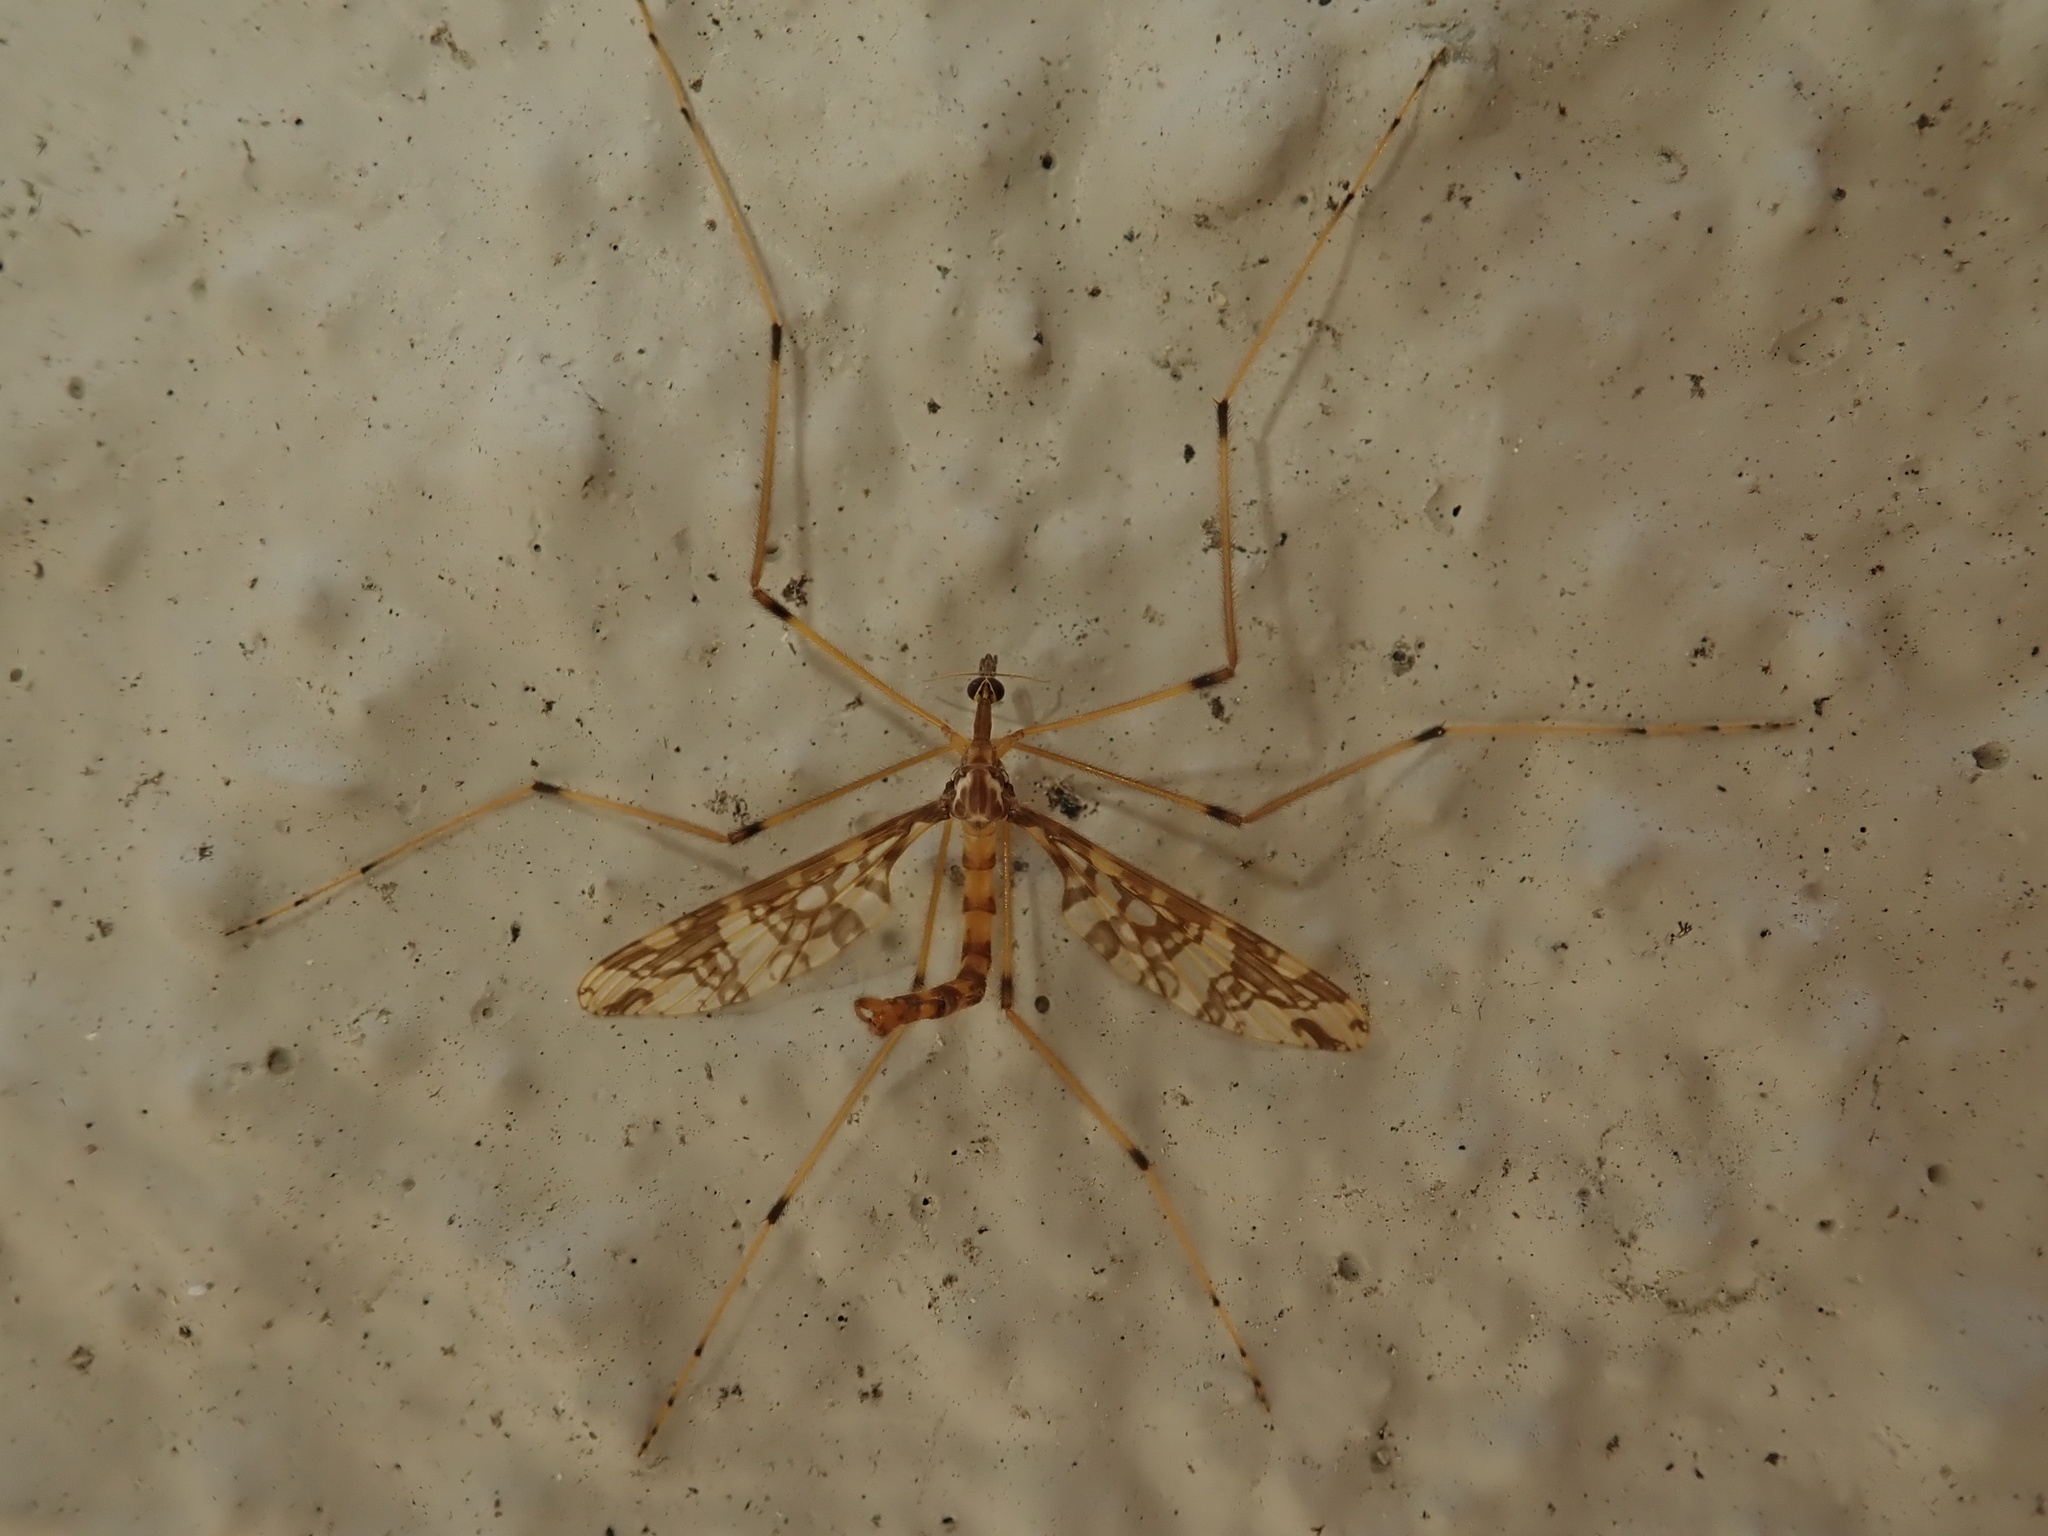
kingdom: Animalia
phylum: Arthropoda
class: Insecta
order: Diptera
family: Tanyderidae
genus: Tanyderus
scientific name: Tanyderus annuliferus
